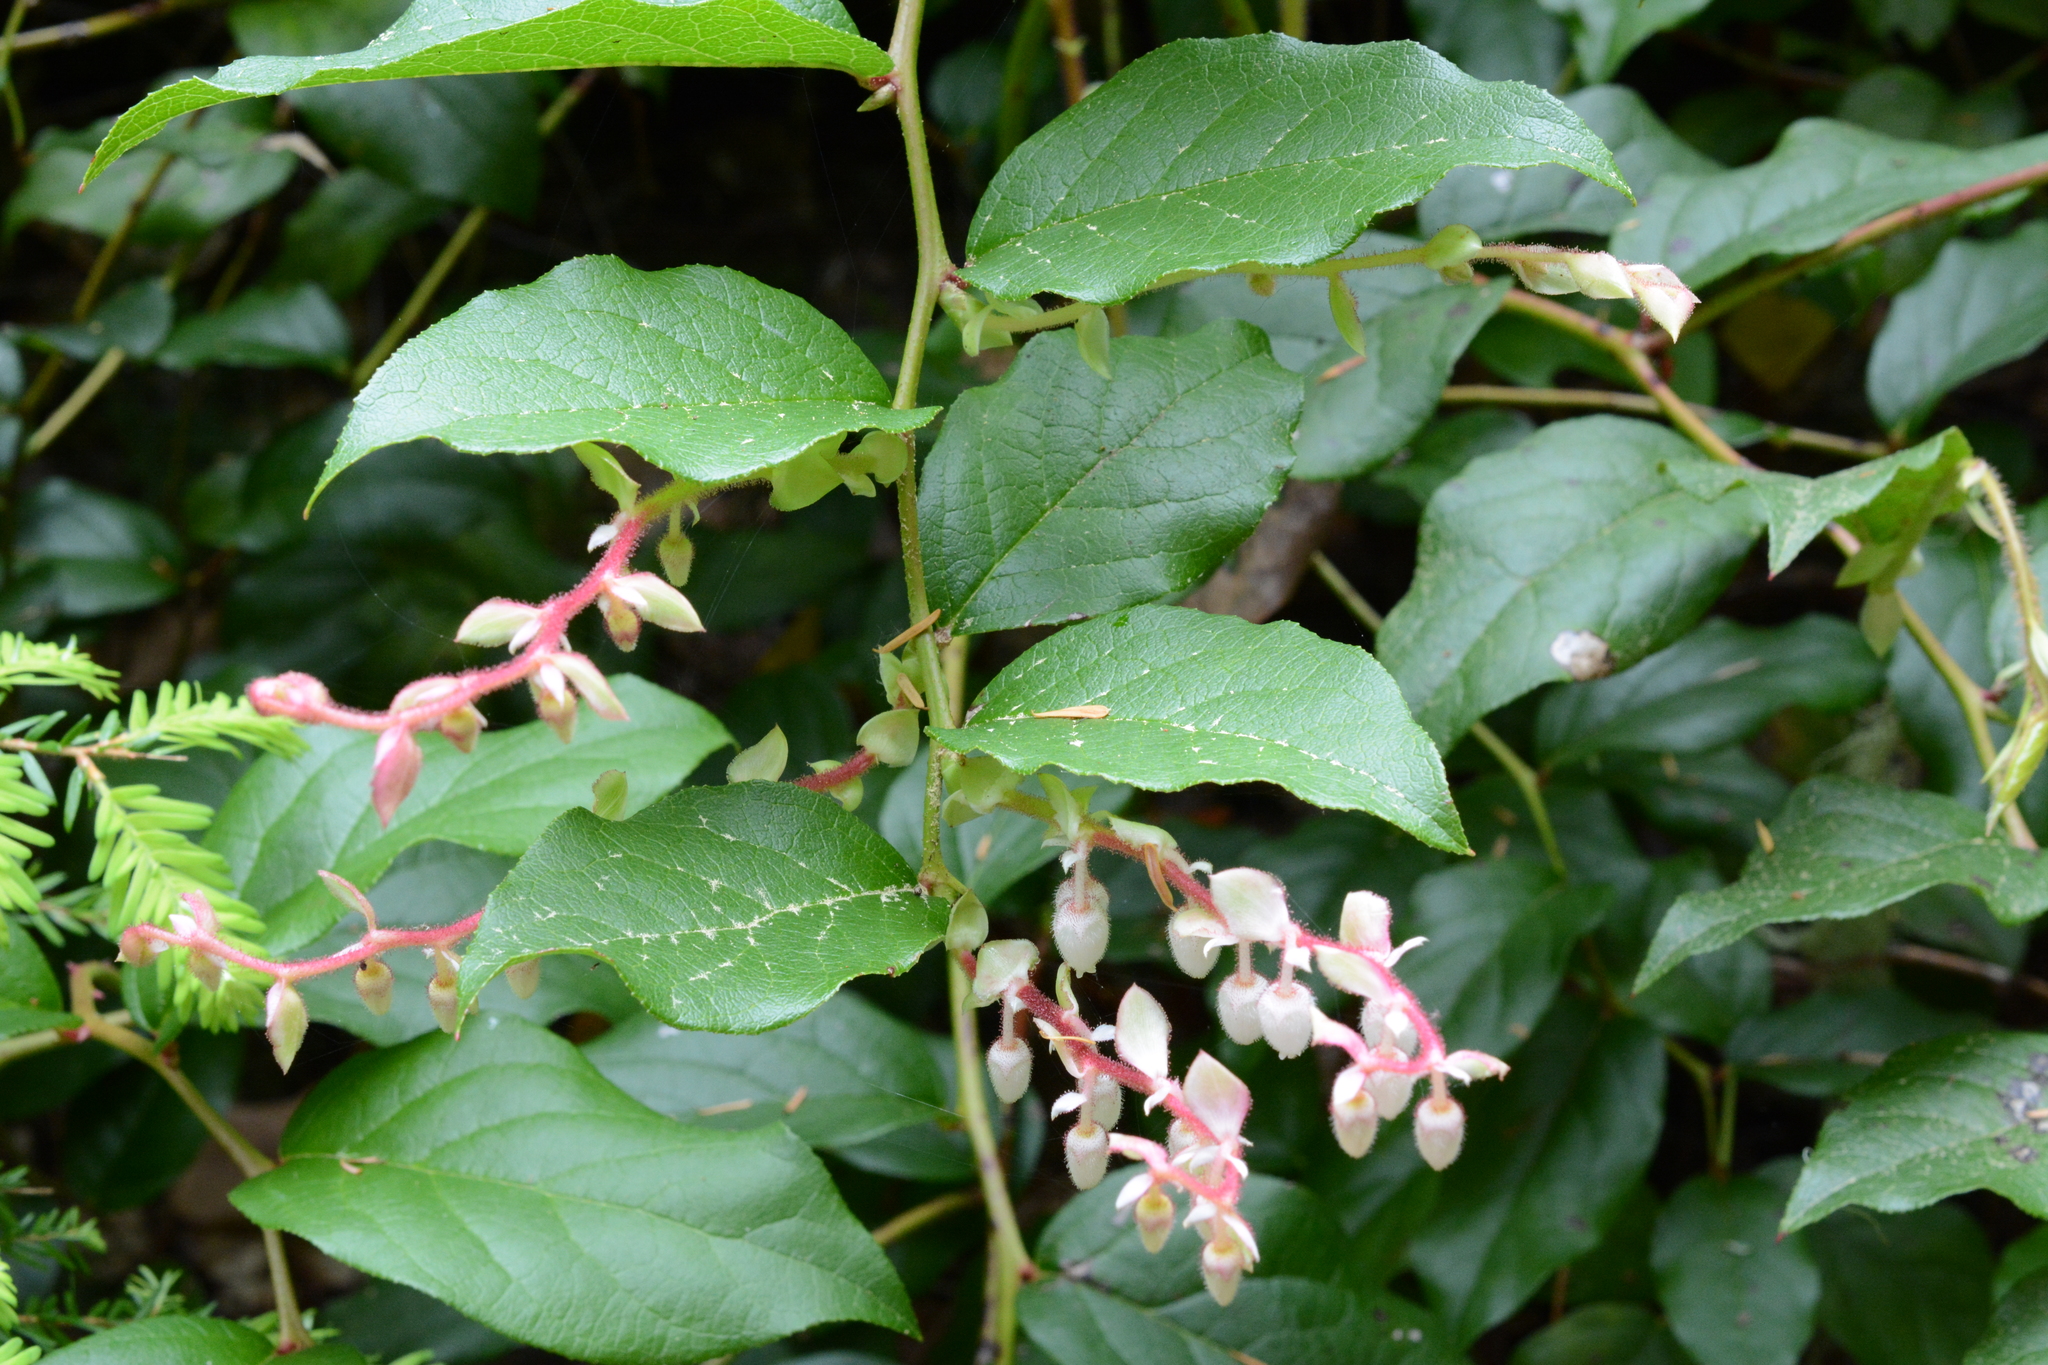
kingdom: Plantae
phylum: Tracheophyta
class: Magnoliopsida
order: Ericales
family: Ericaceae
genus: Gaultheria
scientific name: Gaultheria shallon
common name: Shallon
